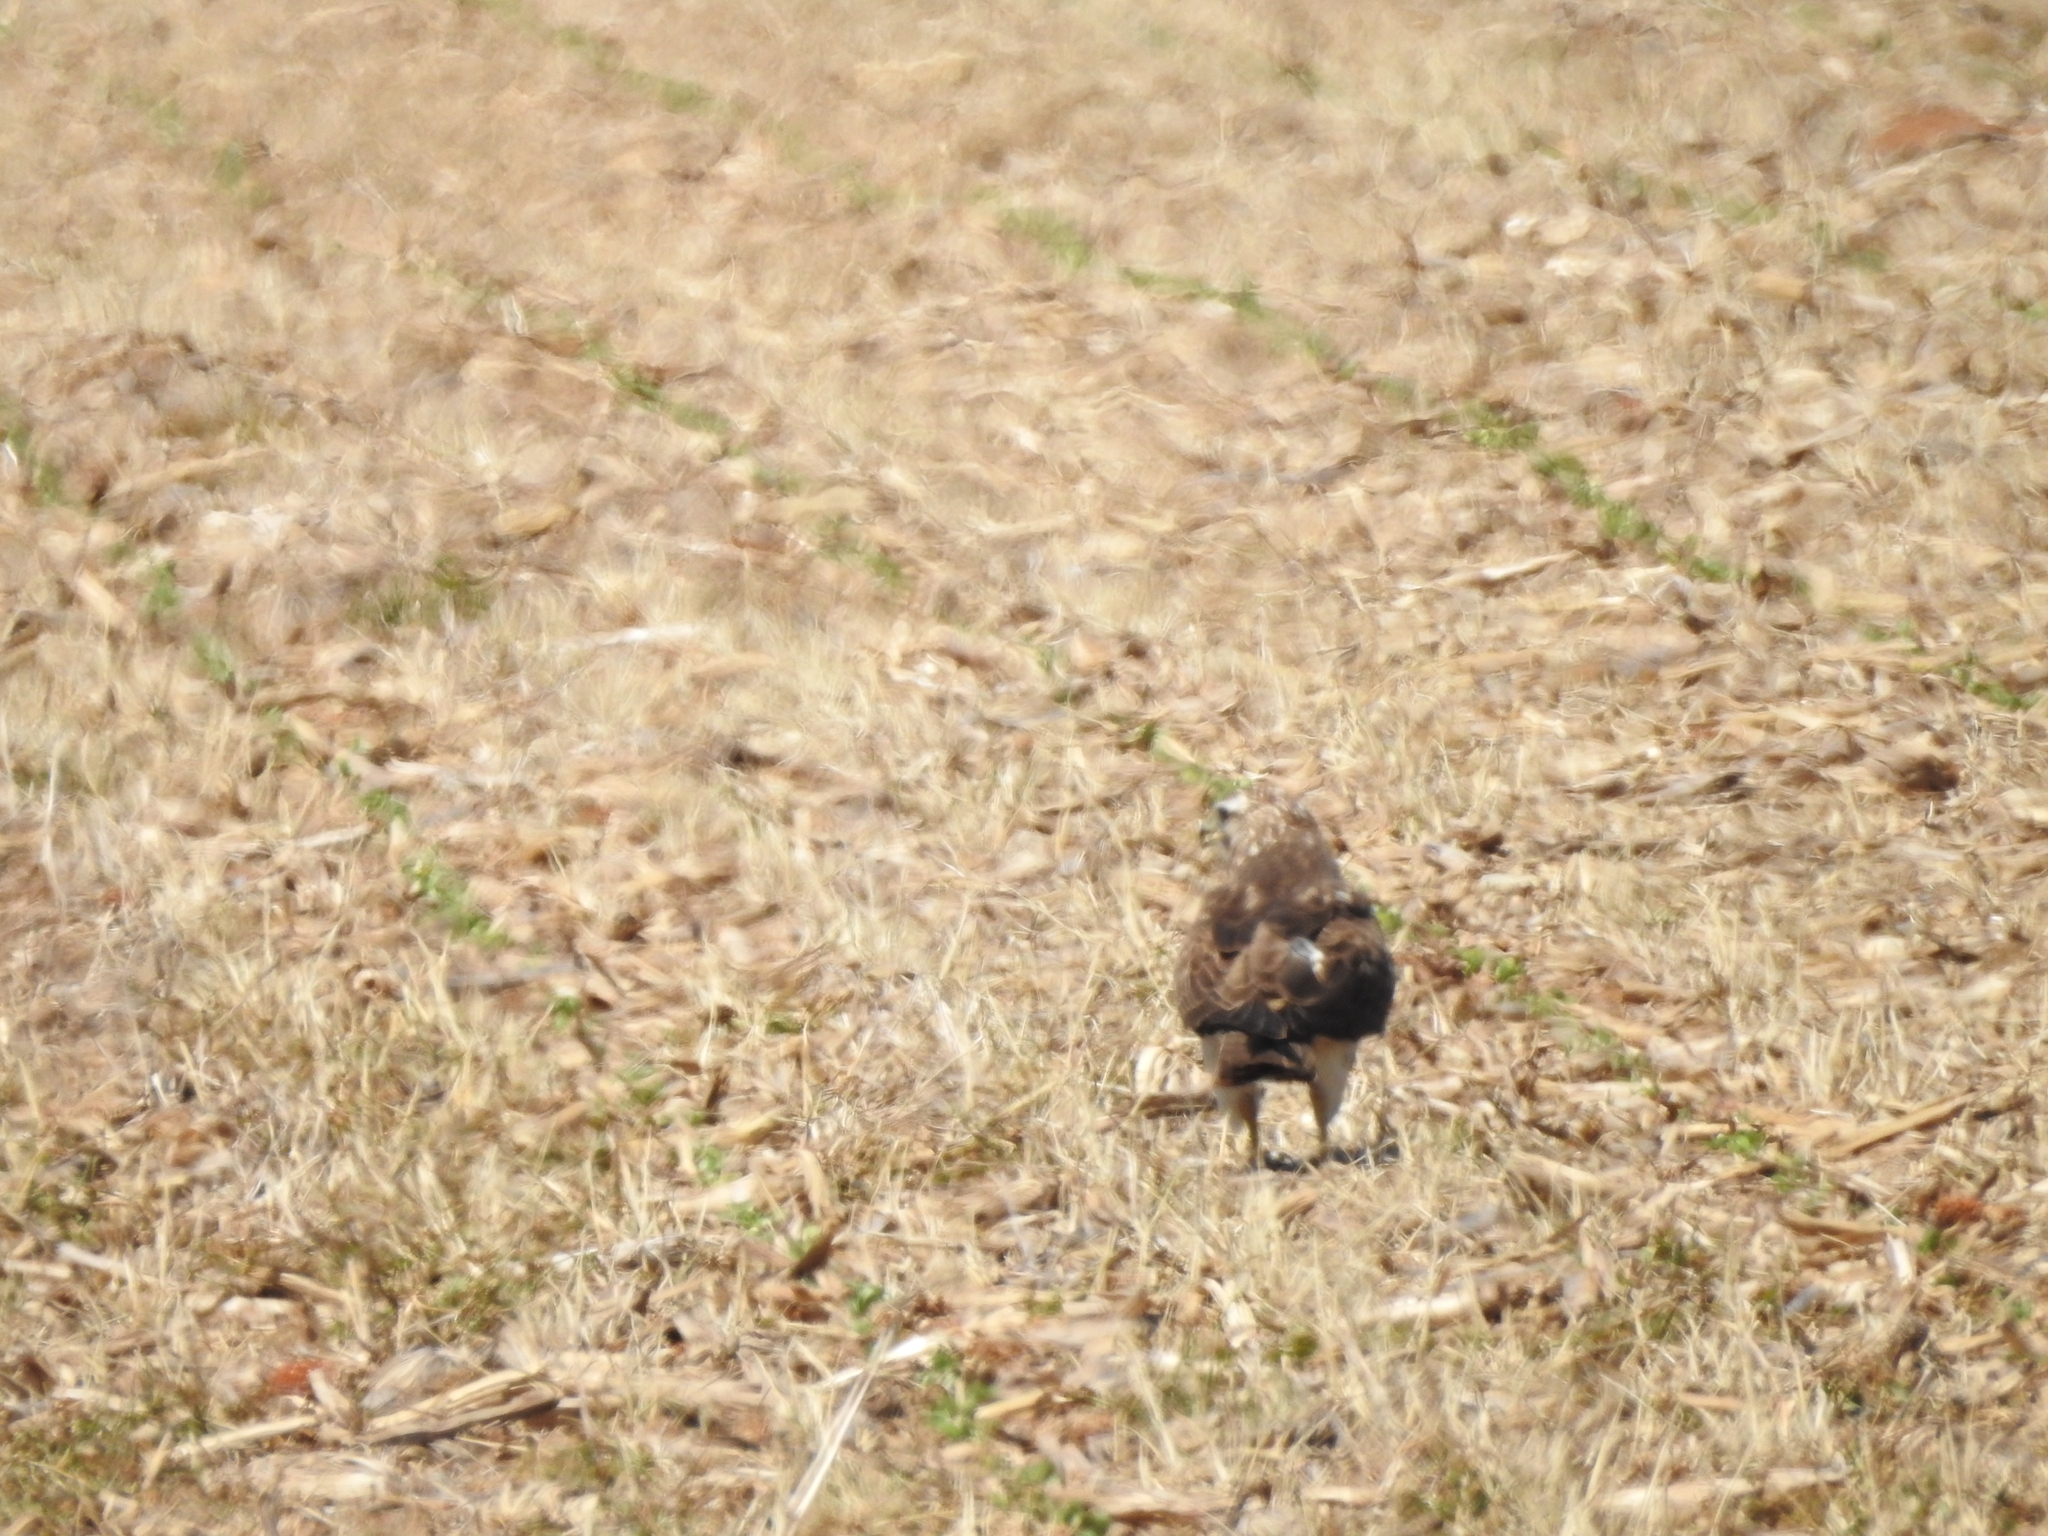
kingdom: Animalia
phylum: Chordata
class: Aves
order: Accipitriformes
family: Accipitridae
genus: Buteo
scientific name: Buteo swainsoni
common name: Swainson's hawk
